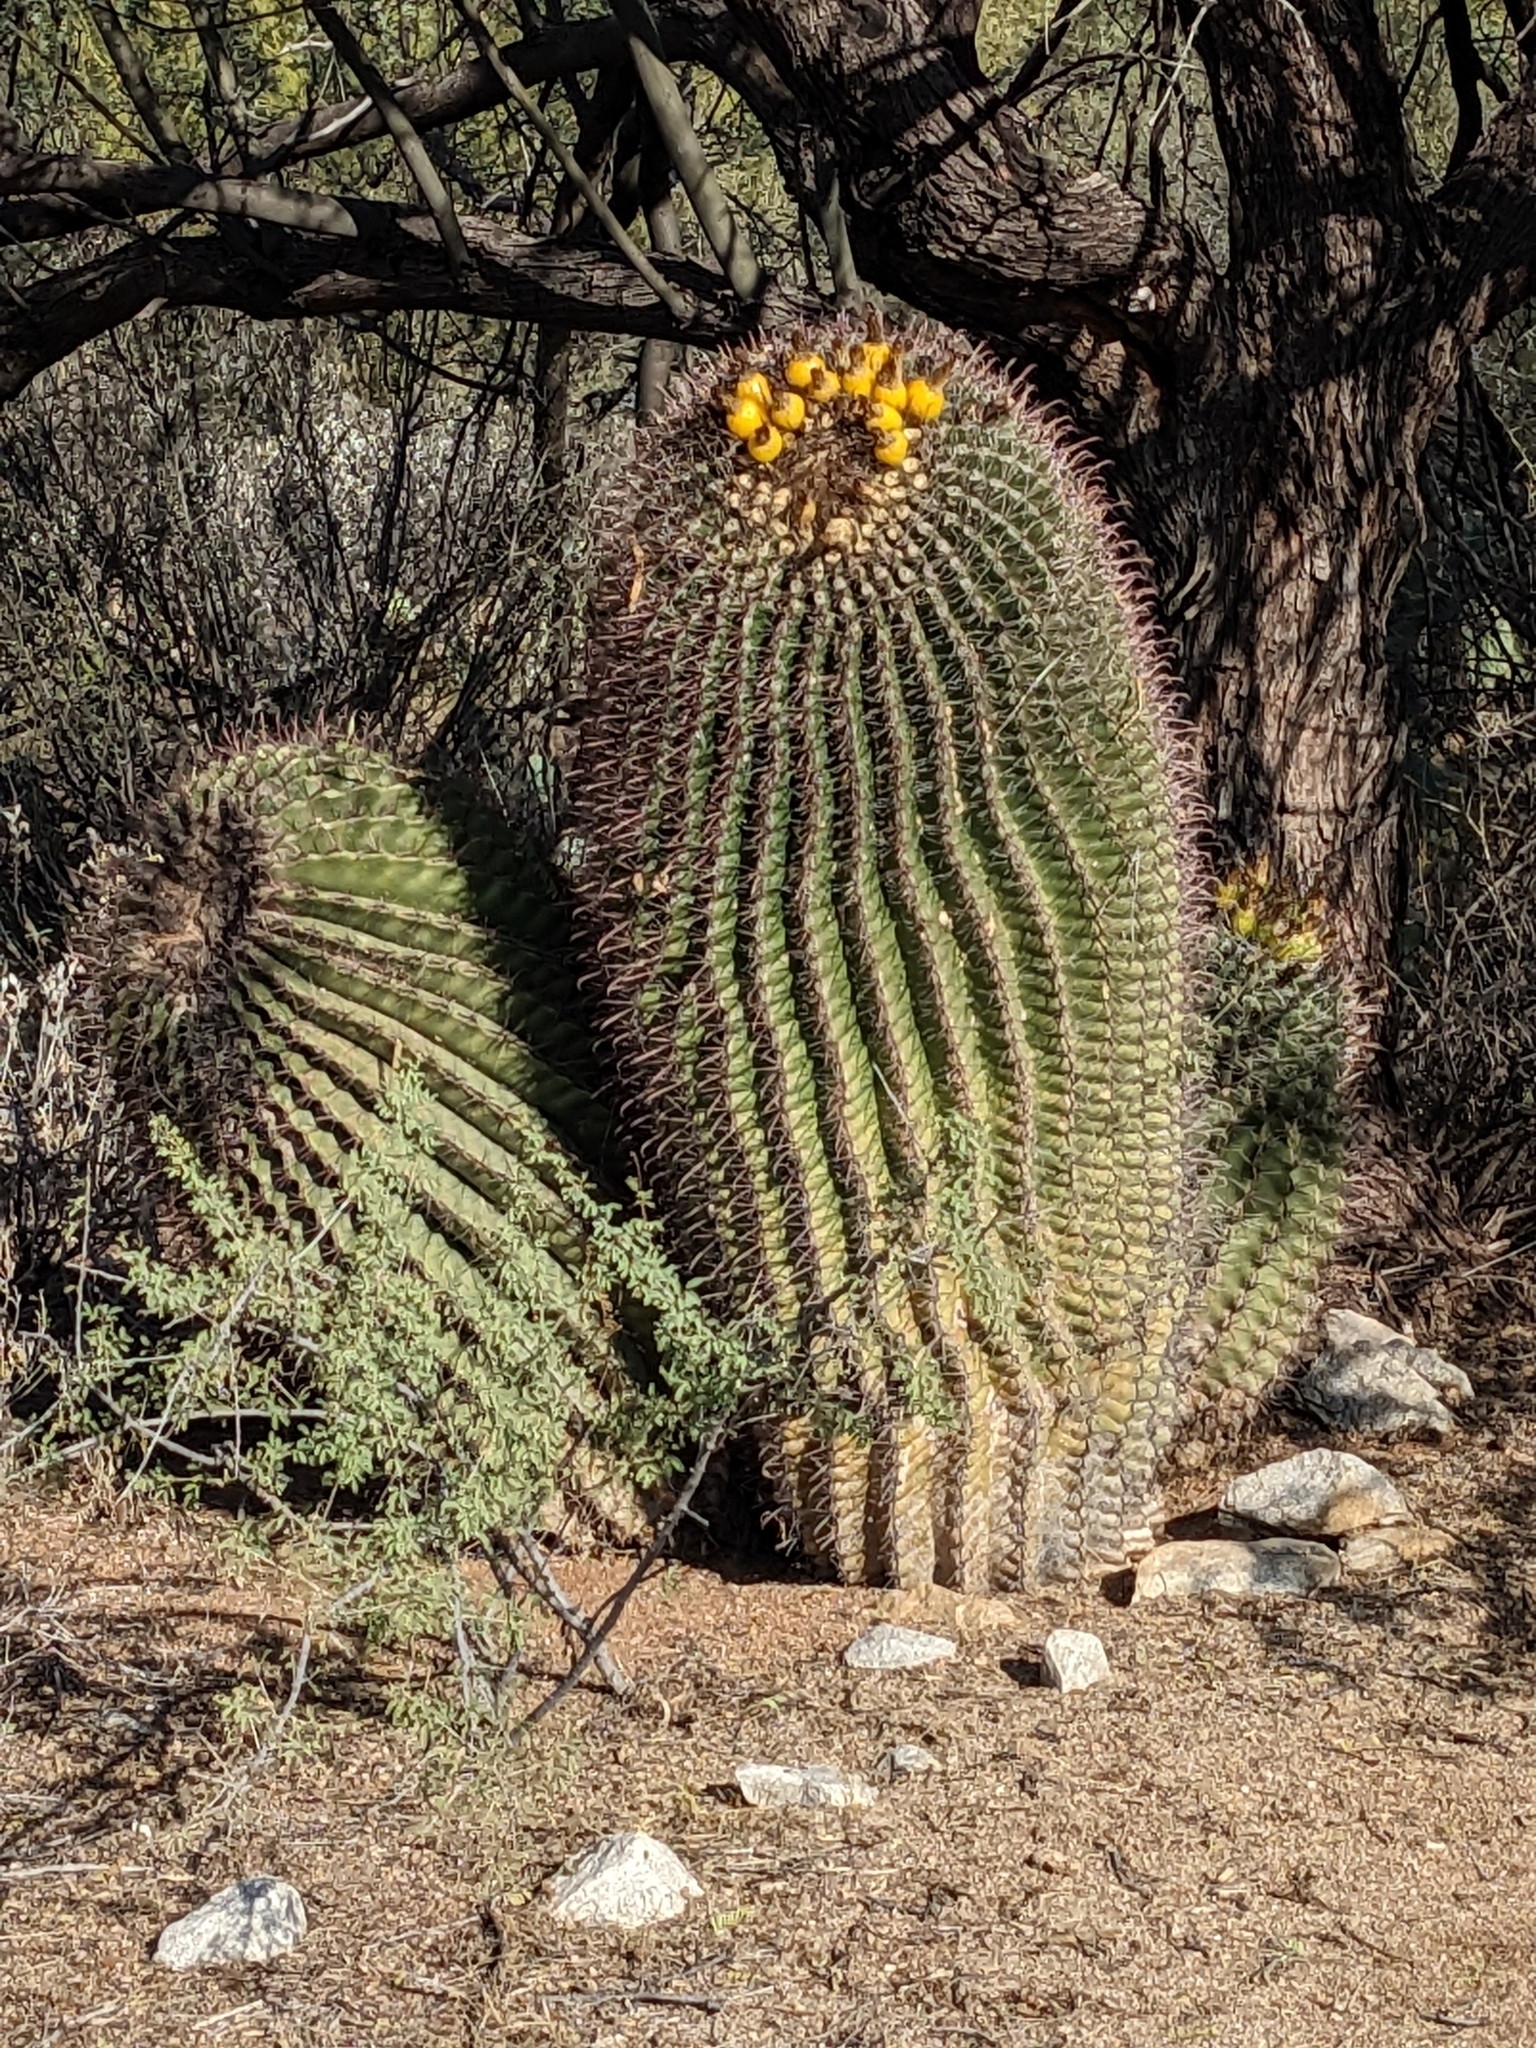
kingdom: Plantae
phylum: Tracheophyta
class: Magnoliopsida
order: Caryophyllales
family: Cactaceae
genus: Ferocactus
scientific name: Ferocactus wislizeni
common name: Candy barrel cactus
